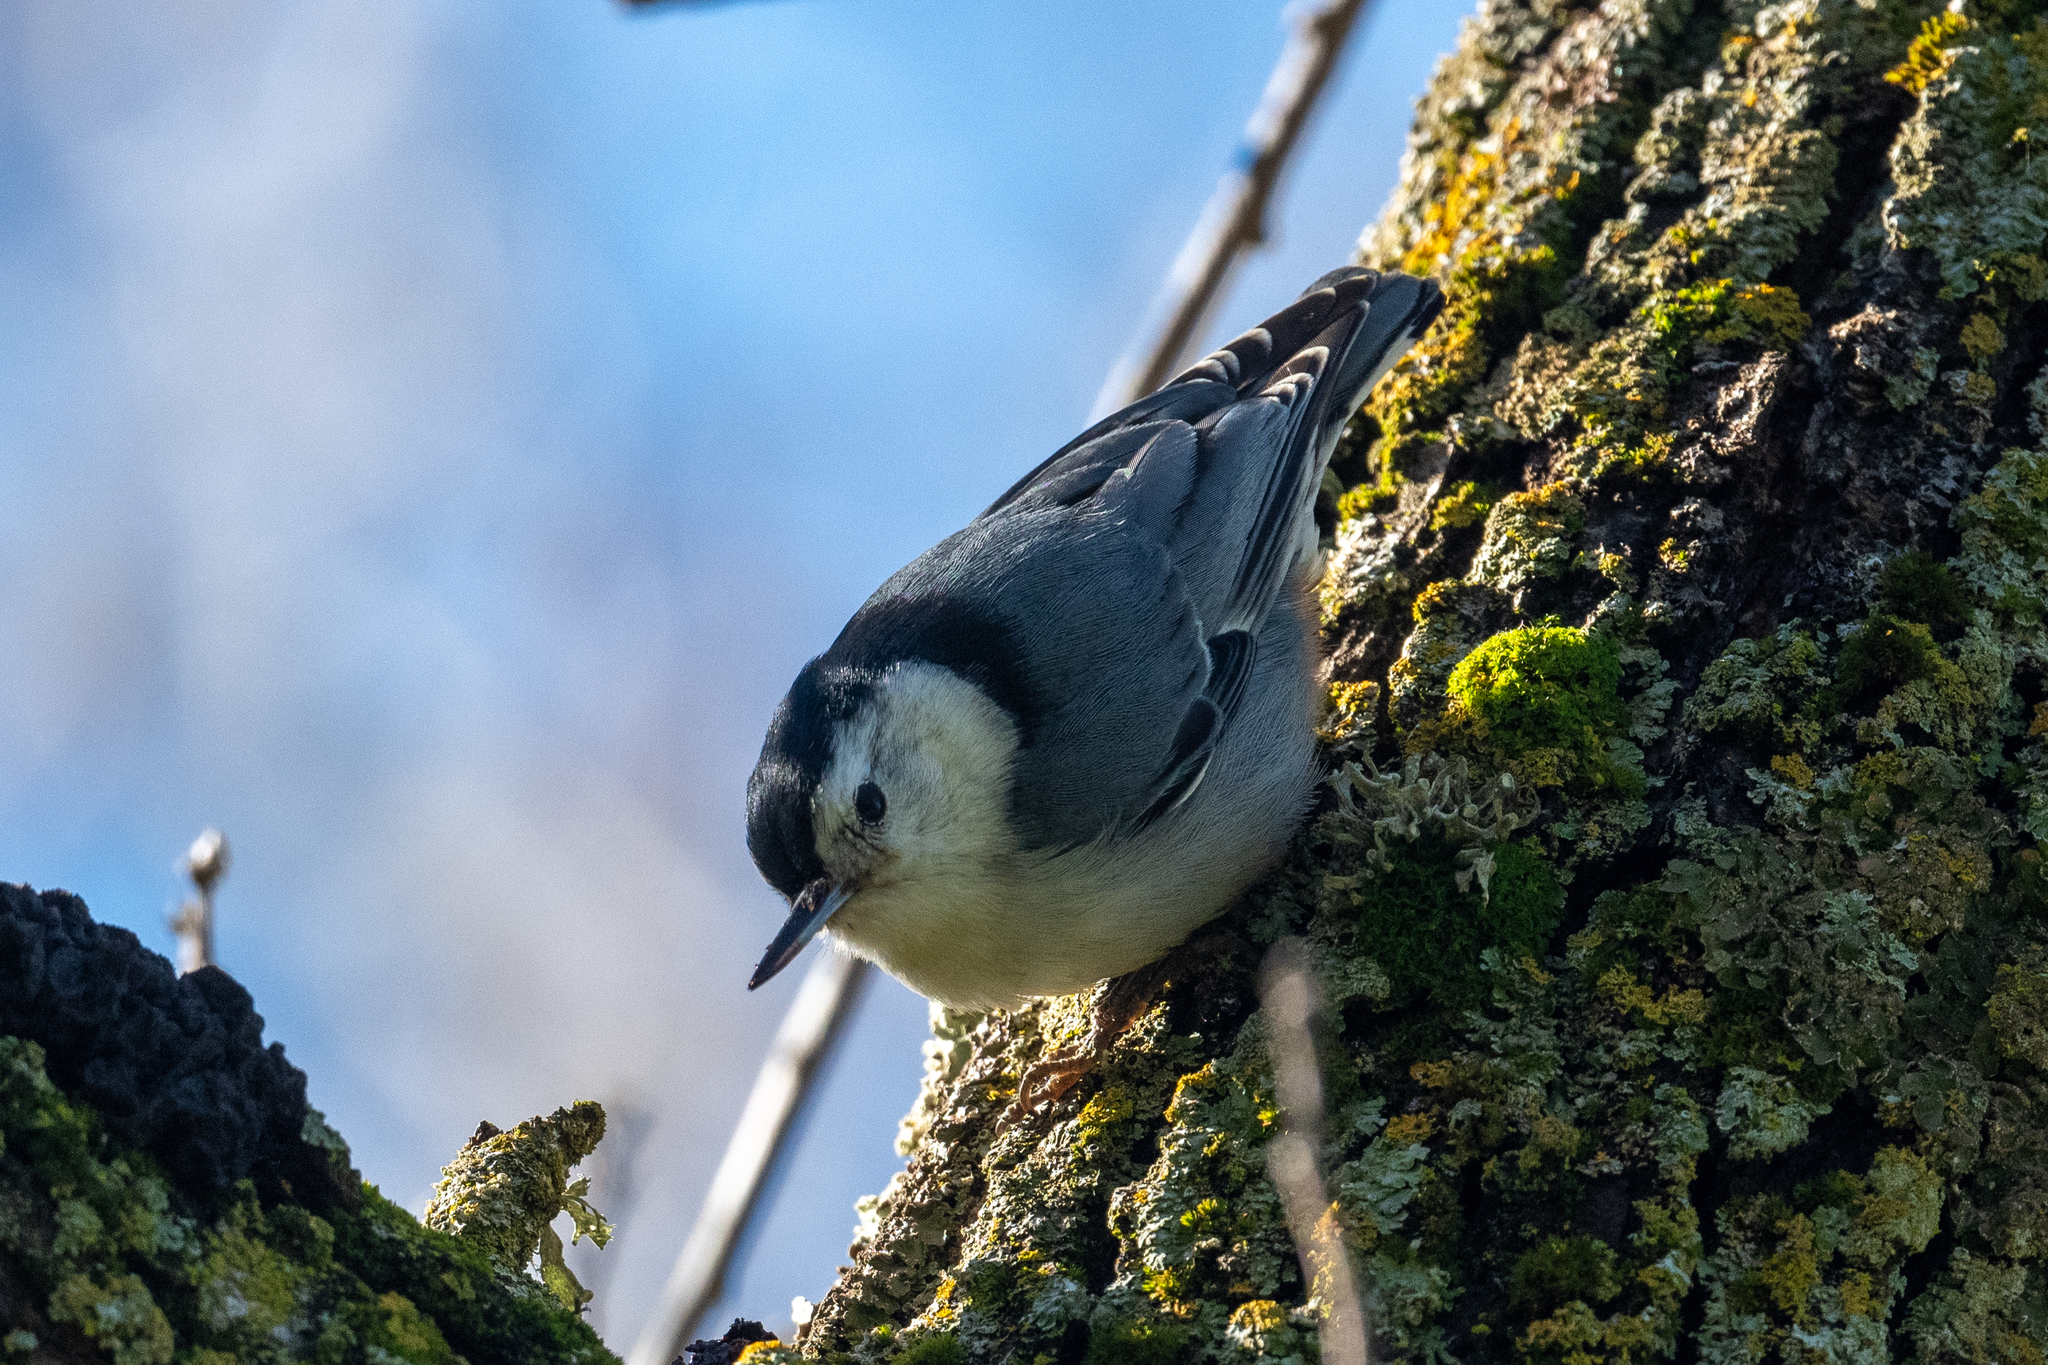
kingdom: Animalia
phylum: Chordata
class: Aves
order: Passeriformes
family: Sittidae
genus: Sitta
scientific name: Sitta carolinensis
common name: White-breasted nuthatch
